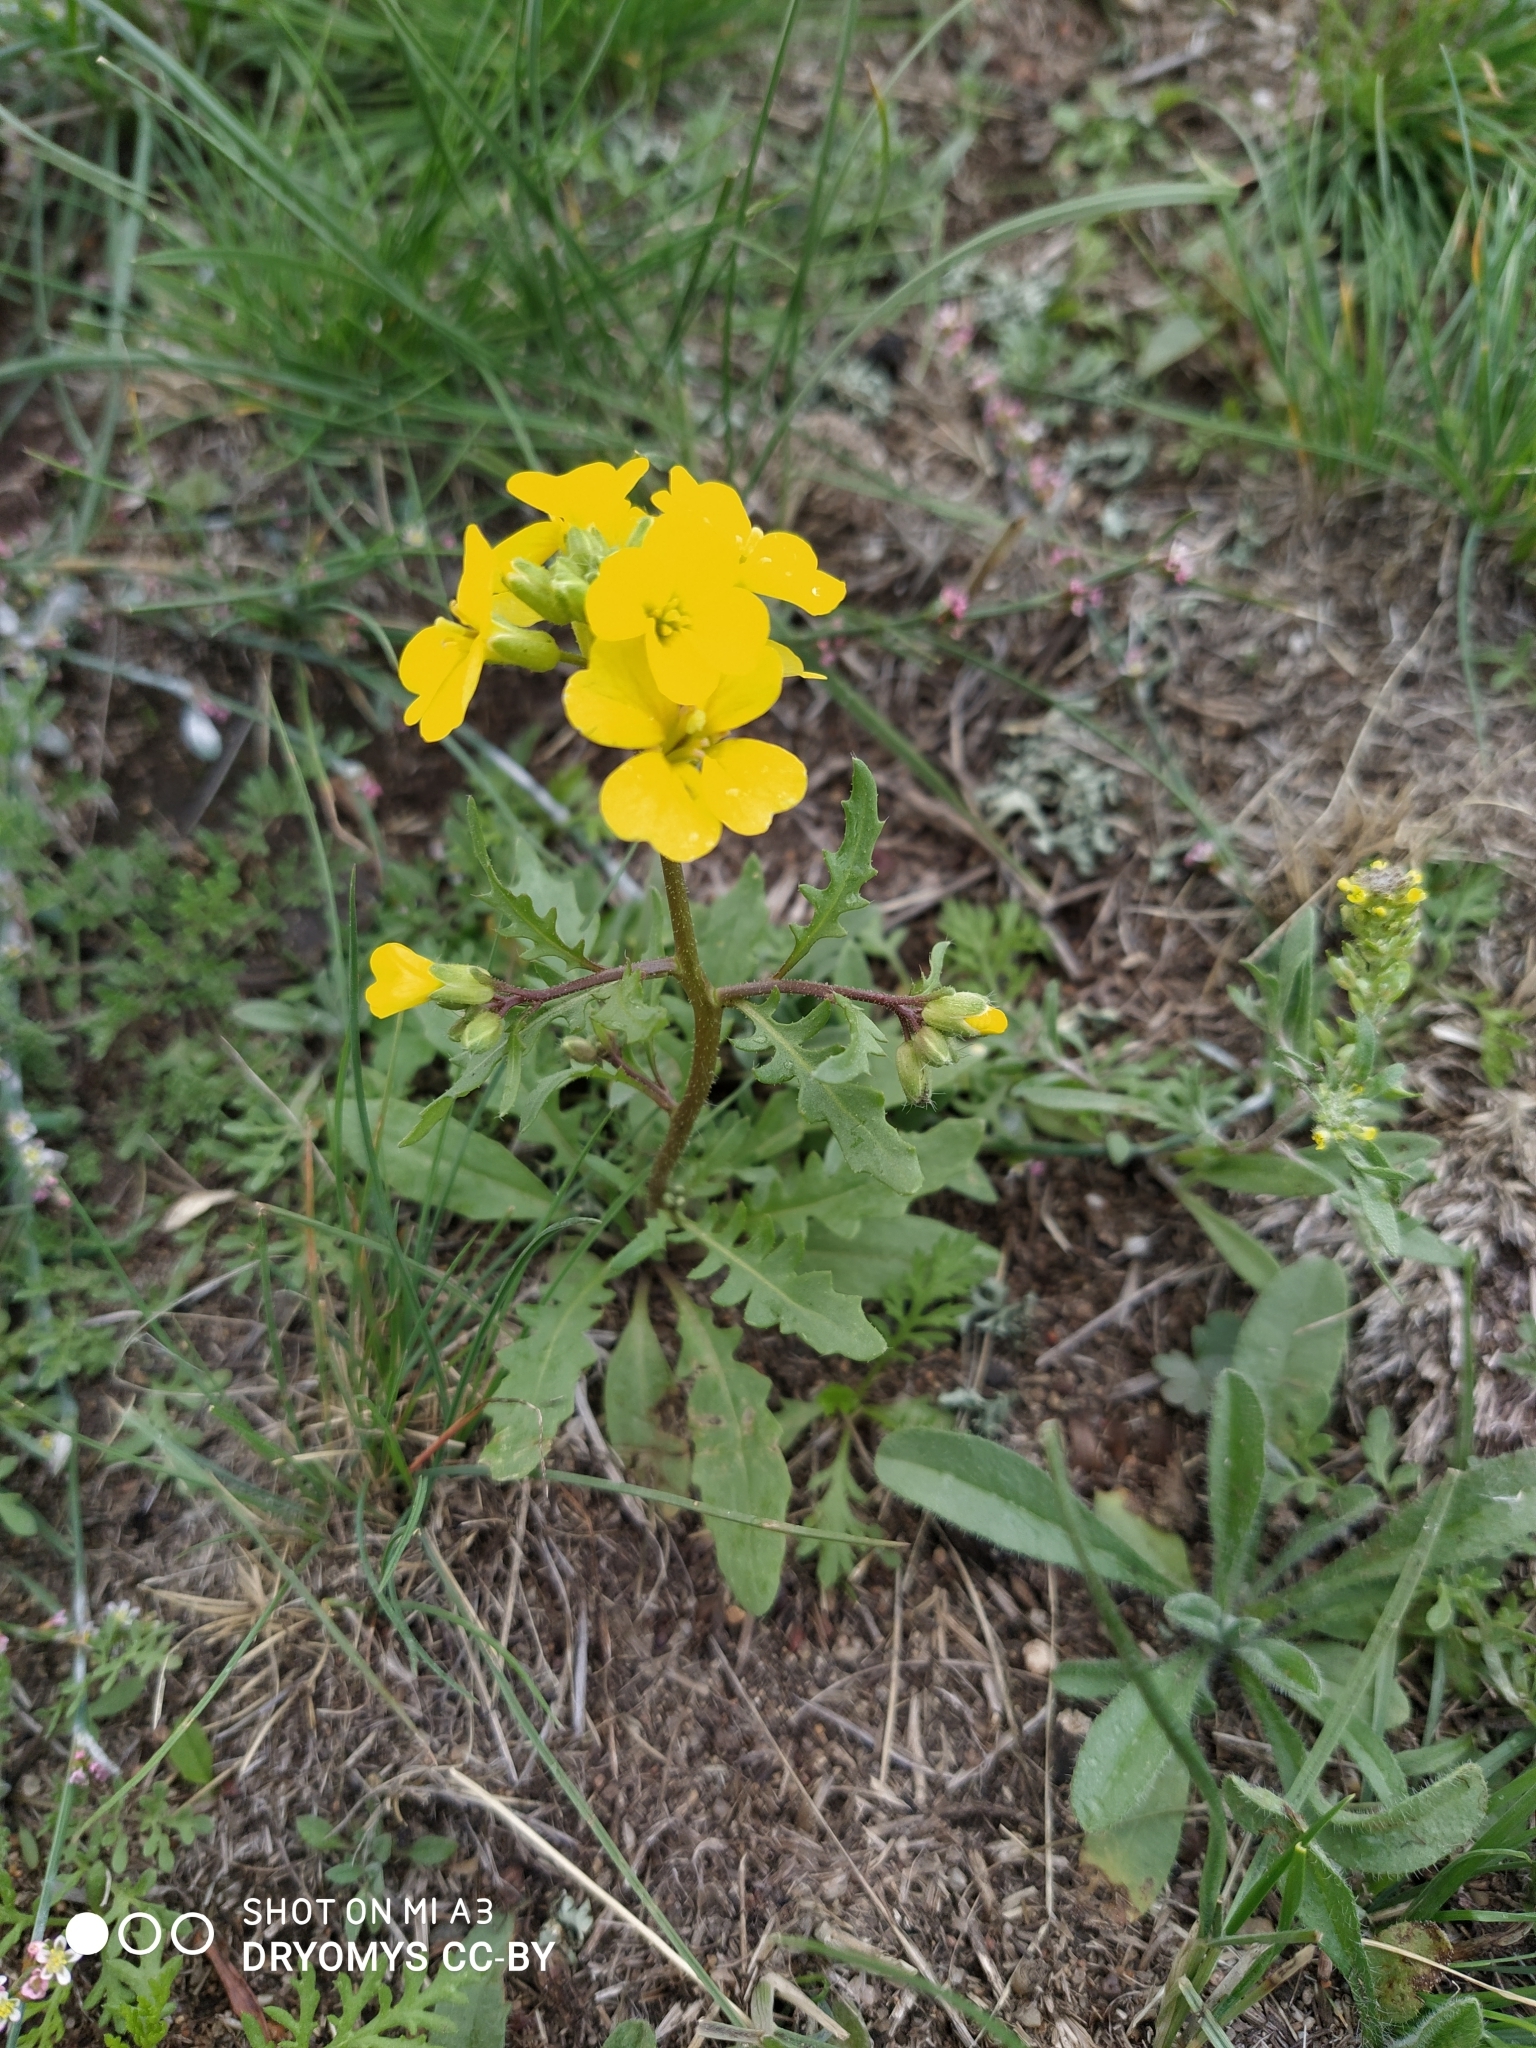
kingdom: Plantae
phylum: Tracheophyta
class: Magnoliopsida
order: Brassicales
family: Brassicaceae
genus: Chorispora
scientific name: Chorispora sibirica
